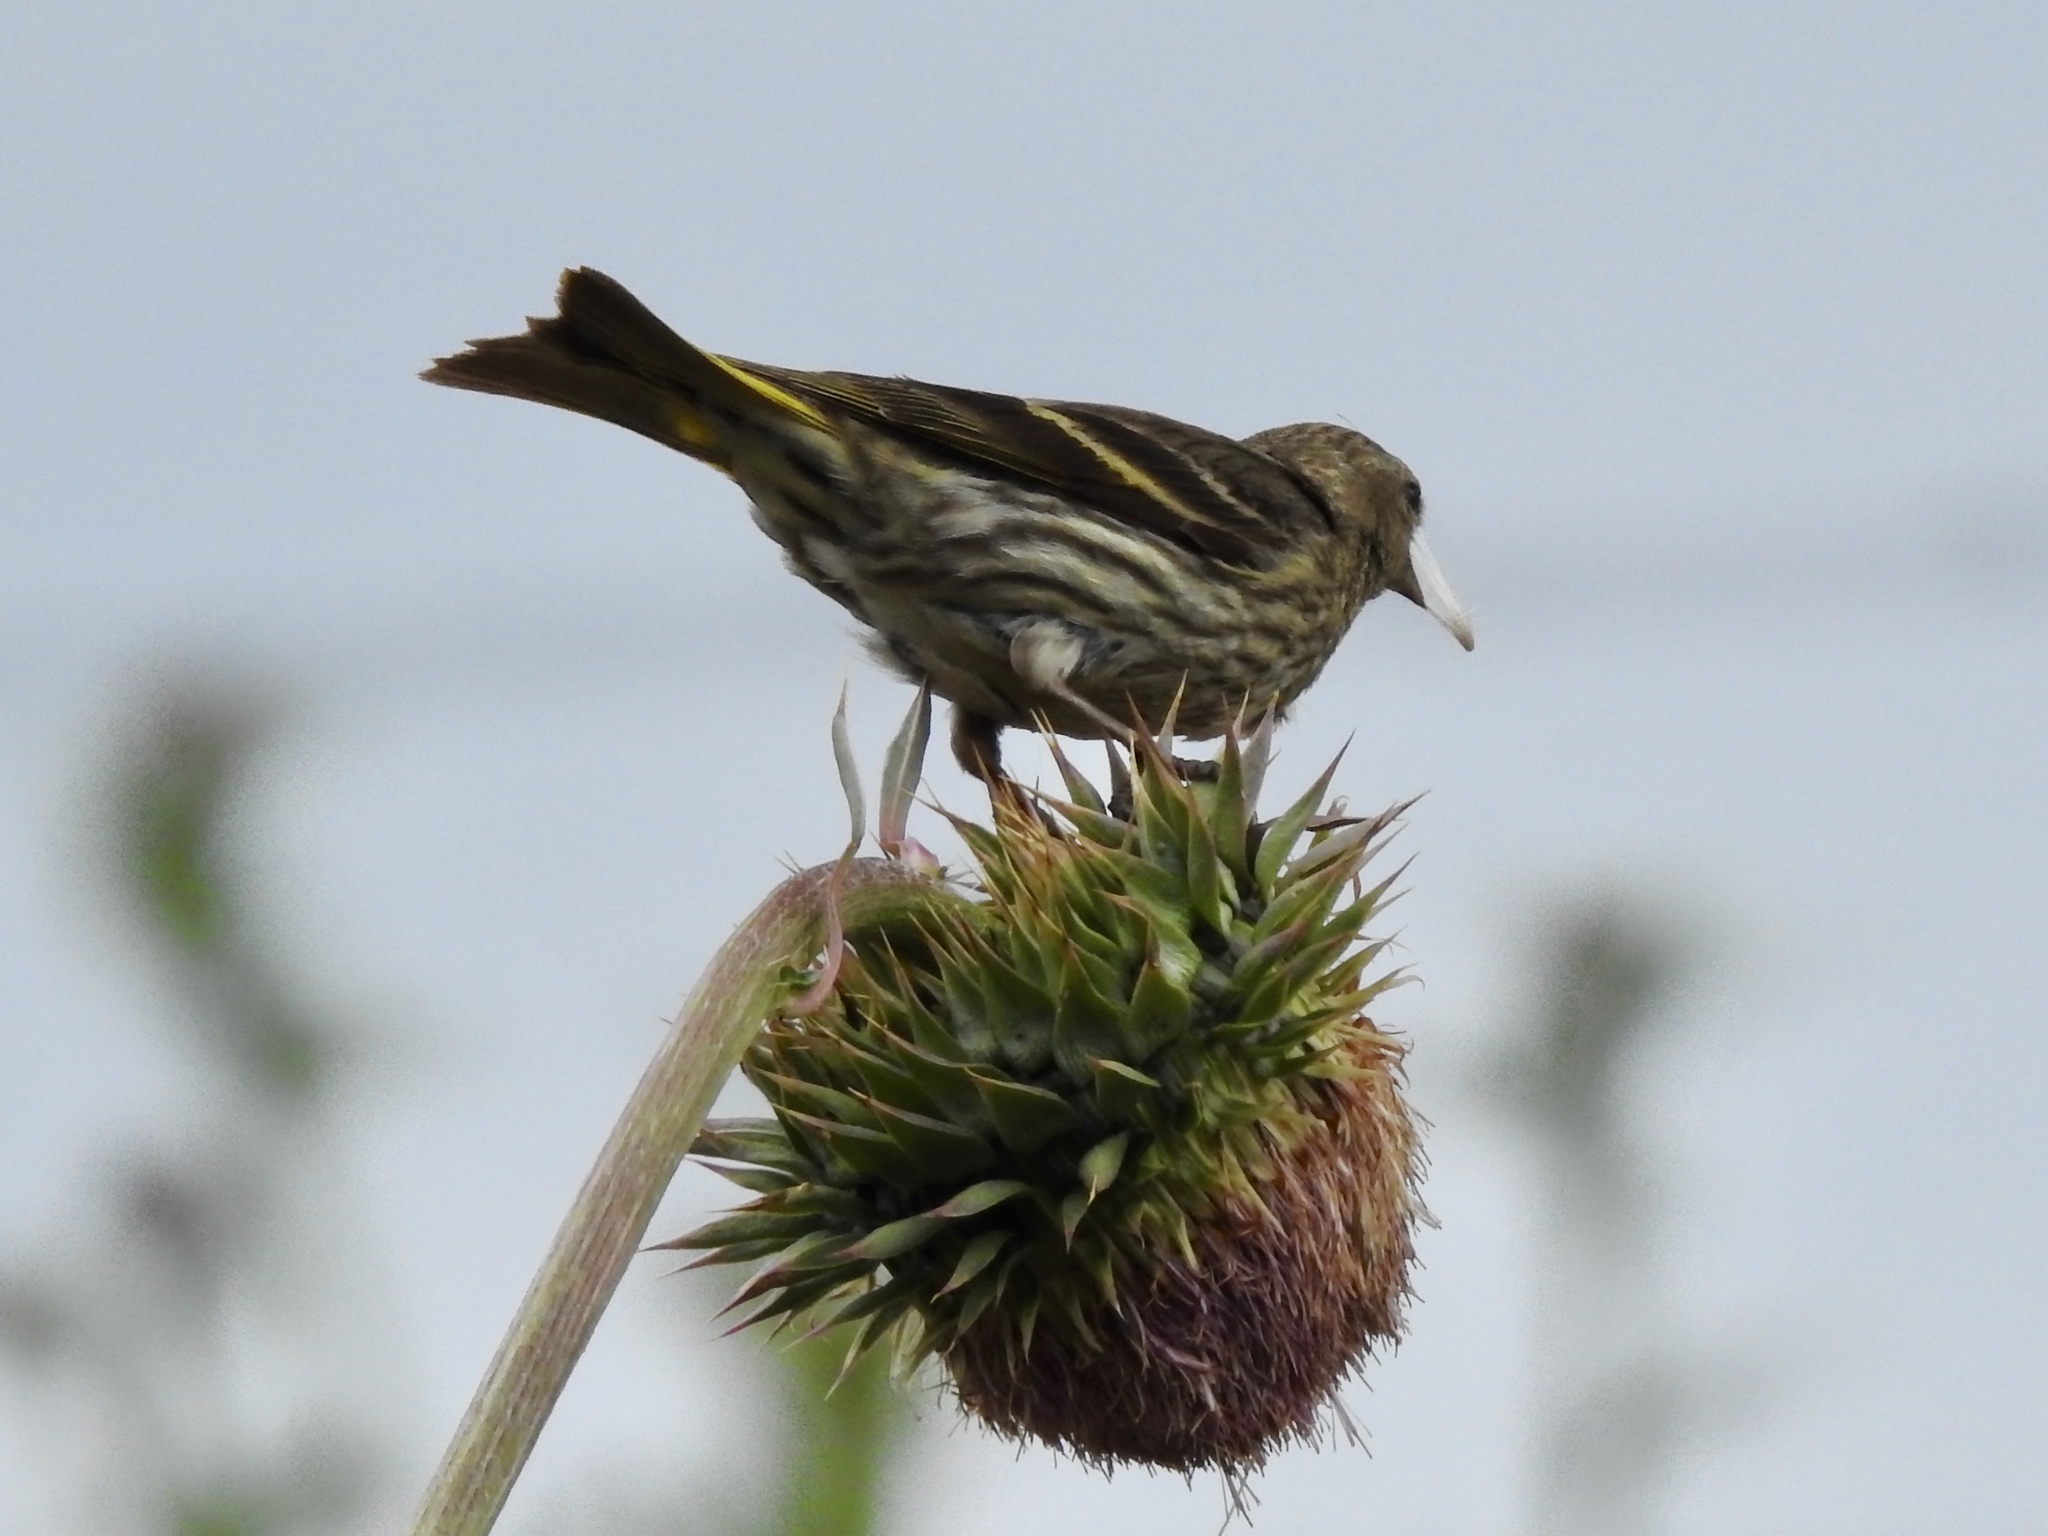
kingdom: Animalia
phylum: Chordata
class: Aves
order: Passeriformes
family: Fringillidae
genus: Spinus
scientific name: Spinus pinus
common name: Pine siskin
